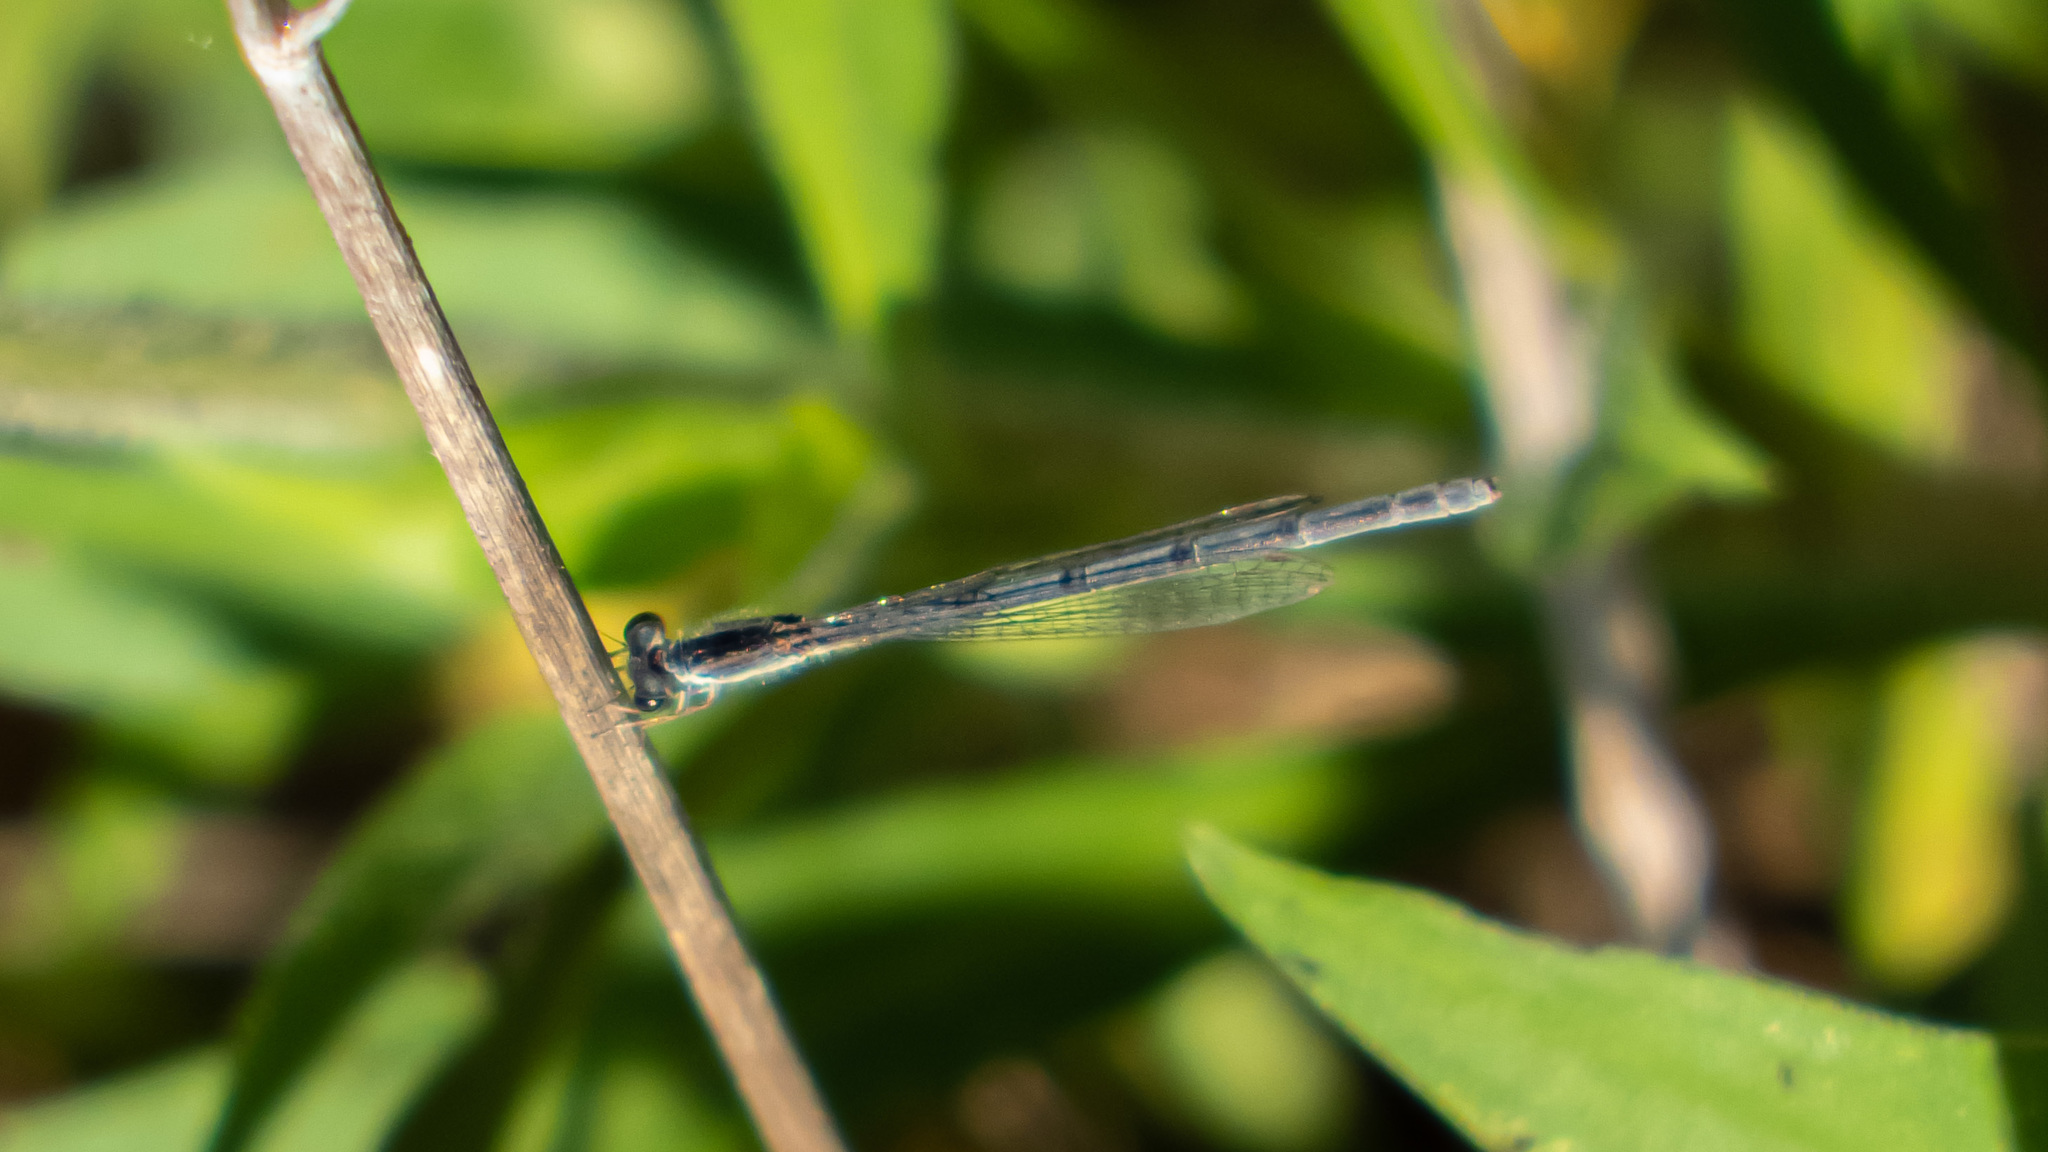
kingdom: Animalia
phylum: Arthropoda
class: Insecta
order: Odonata
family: Coenagrionidae
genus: Ischnura
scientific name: Ischnura hastata
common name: Citrine forktail
